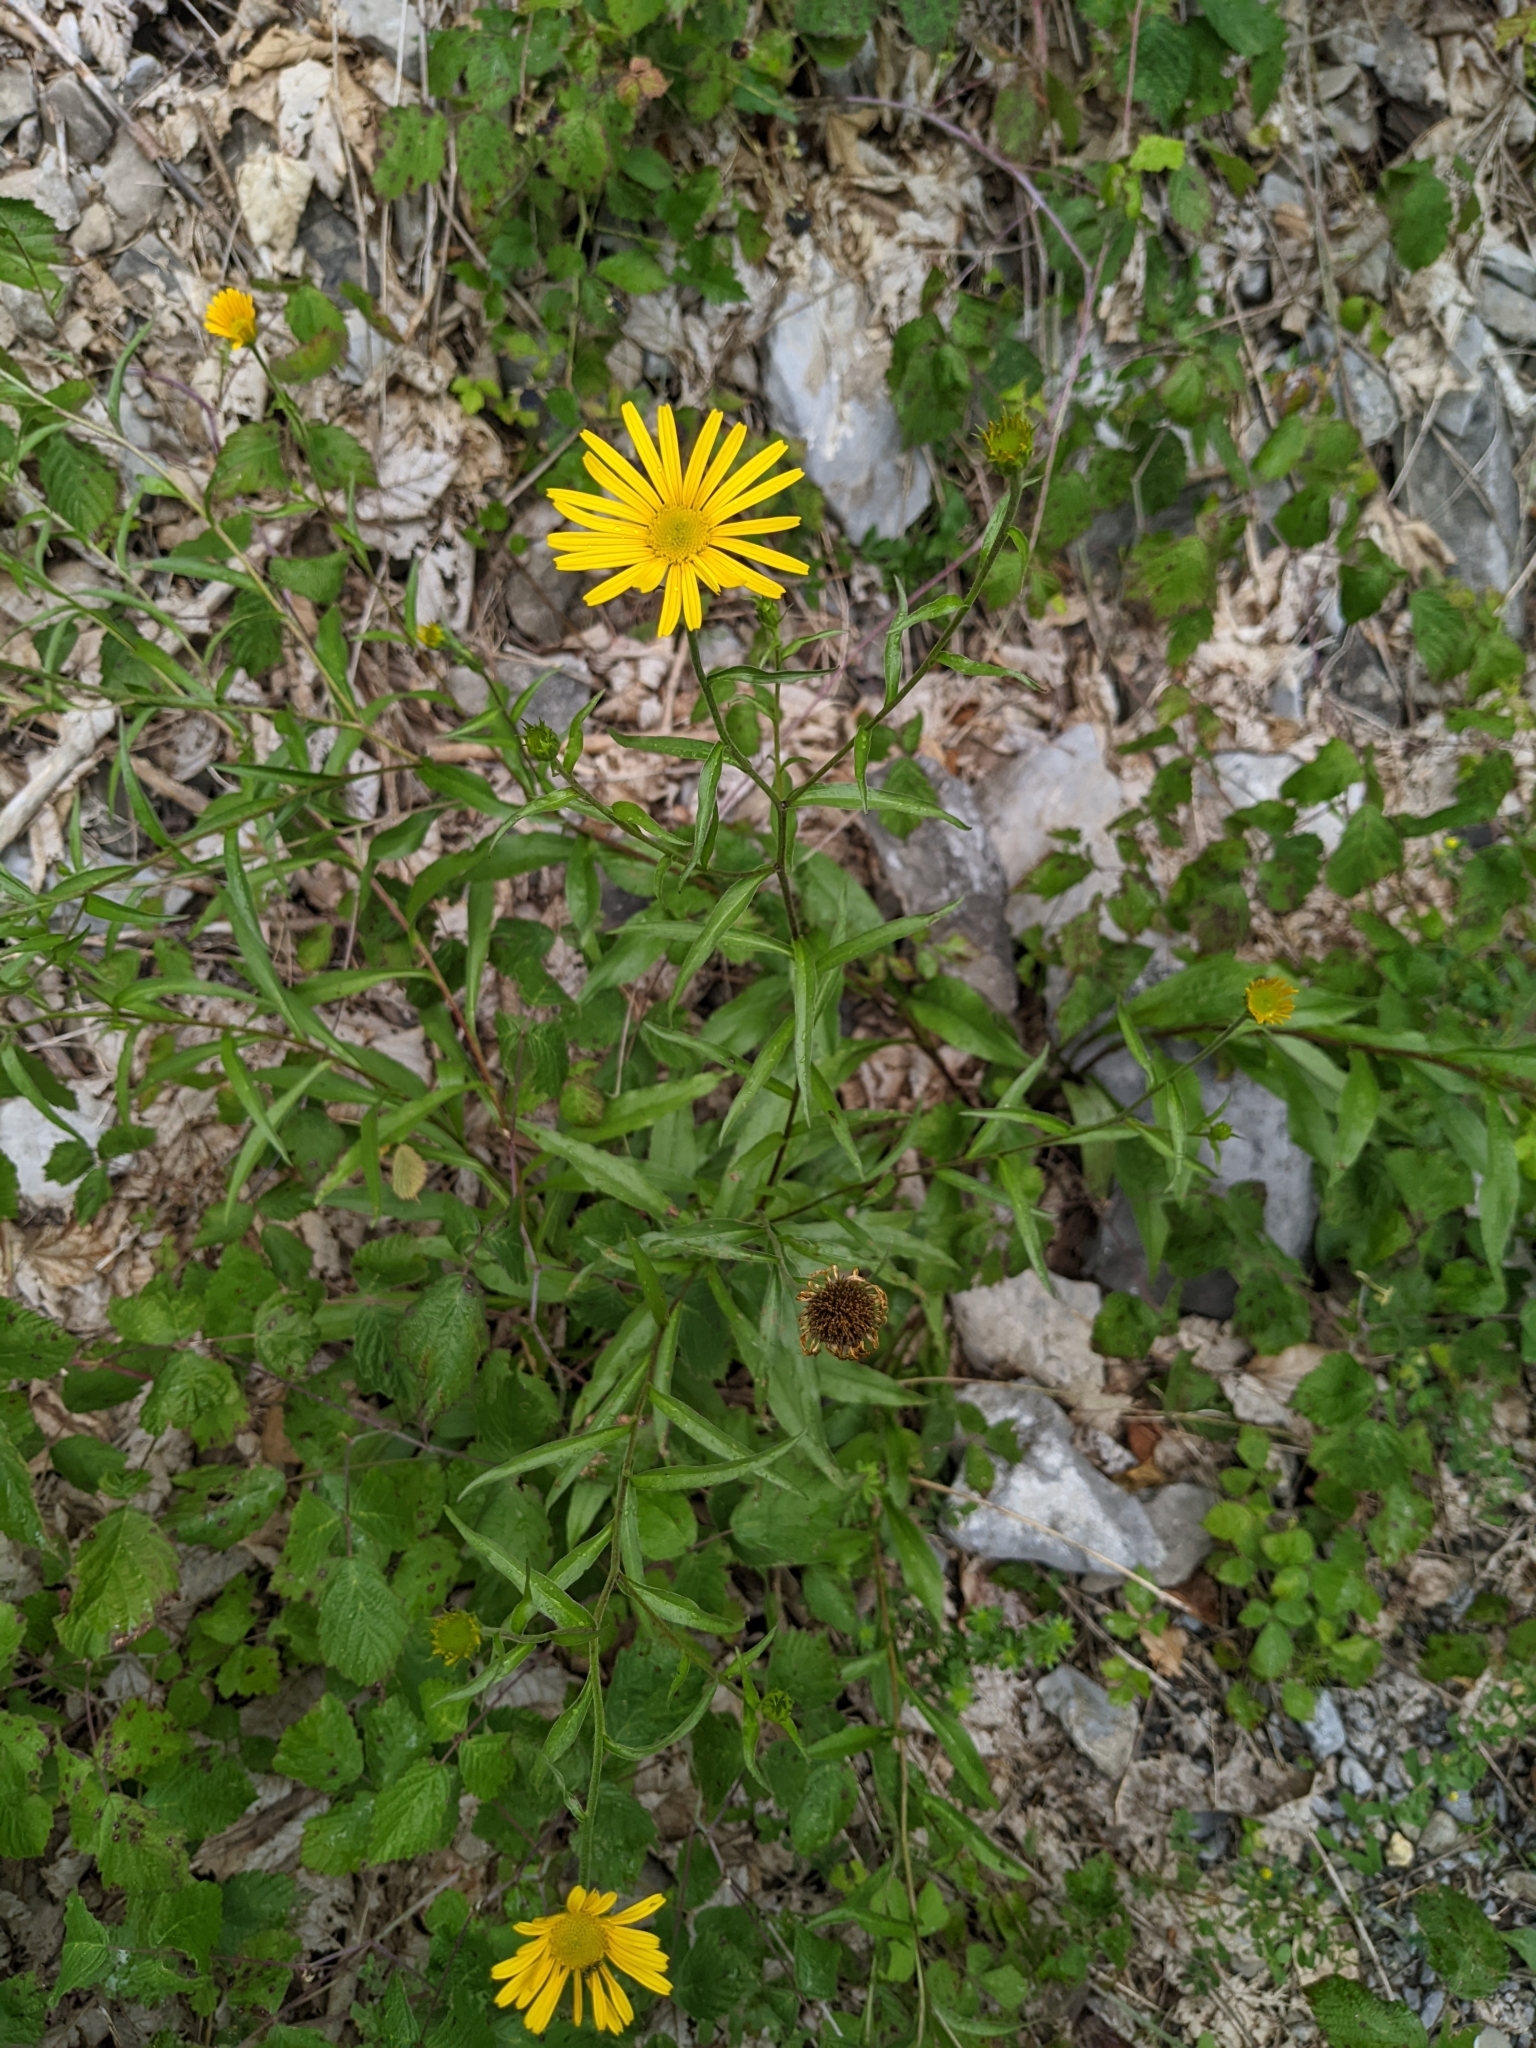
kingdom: Plantae
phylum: Tracheophyta
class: Magnoliopsida
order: Asterales
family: Asteraceae
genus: Buphthalmum
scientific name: Buphthalmum salicifolium
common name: Willow-leaved yellow-oxeye
